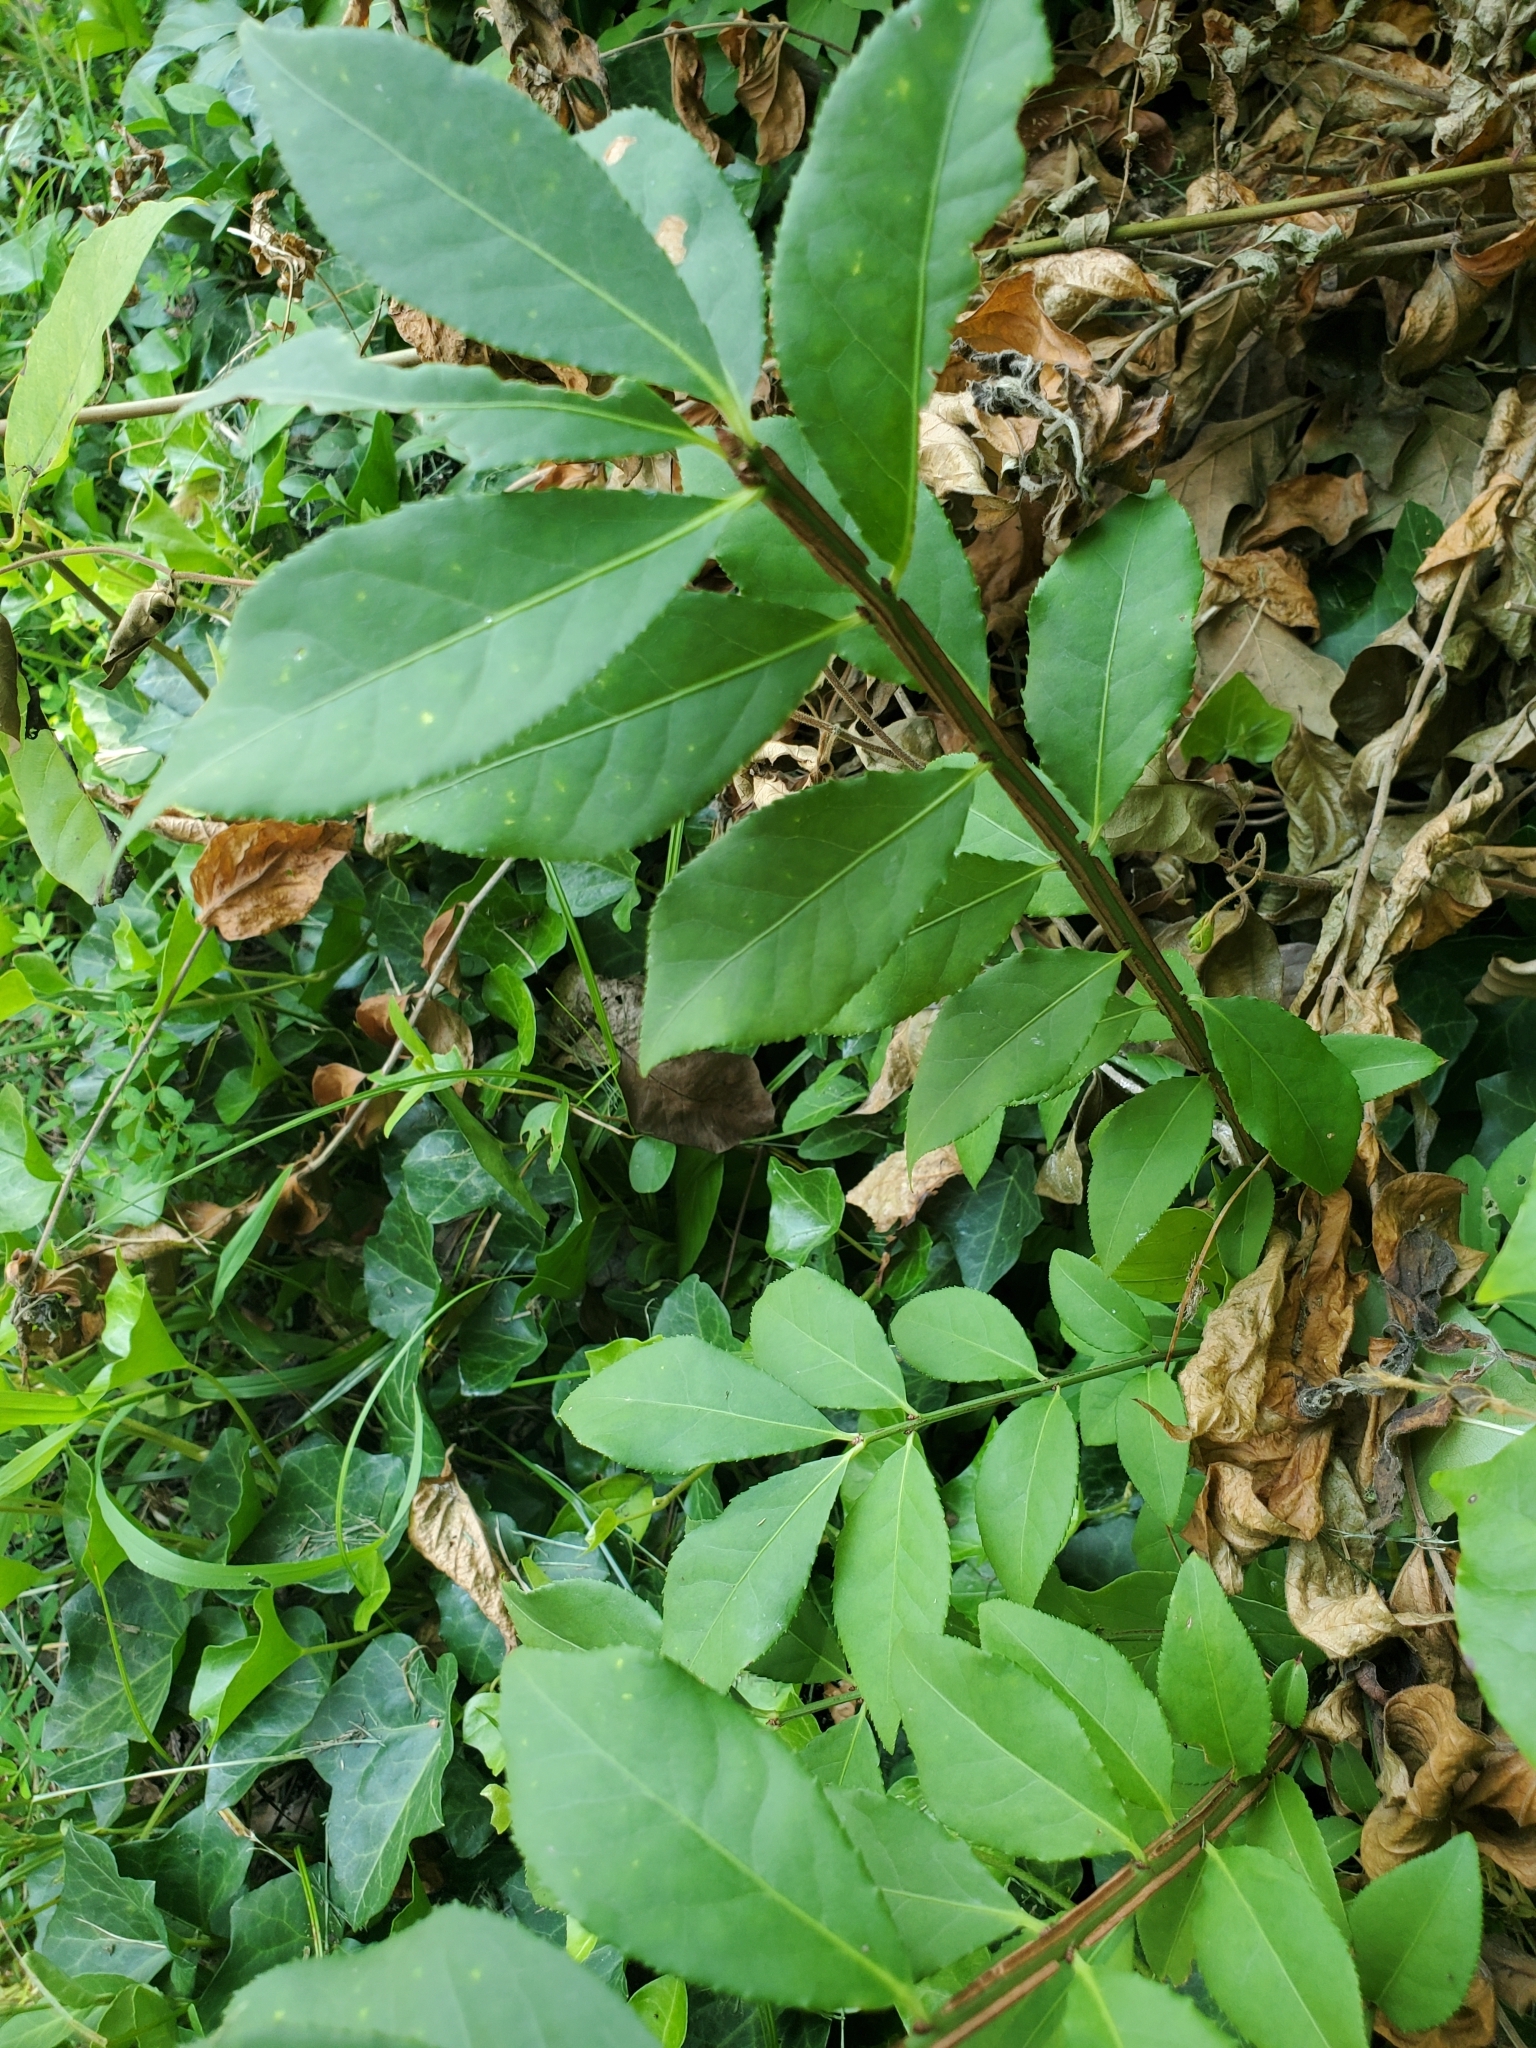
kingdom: Plantae
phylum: Tracheophyta
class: Magnoliopsida
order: Celastrales
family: Celastraceae
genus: Euonymus
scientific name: Euonymus alatus
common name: Winged euonymus
